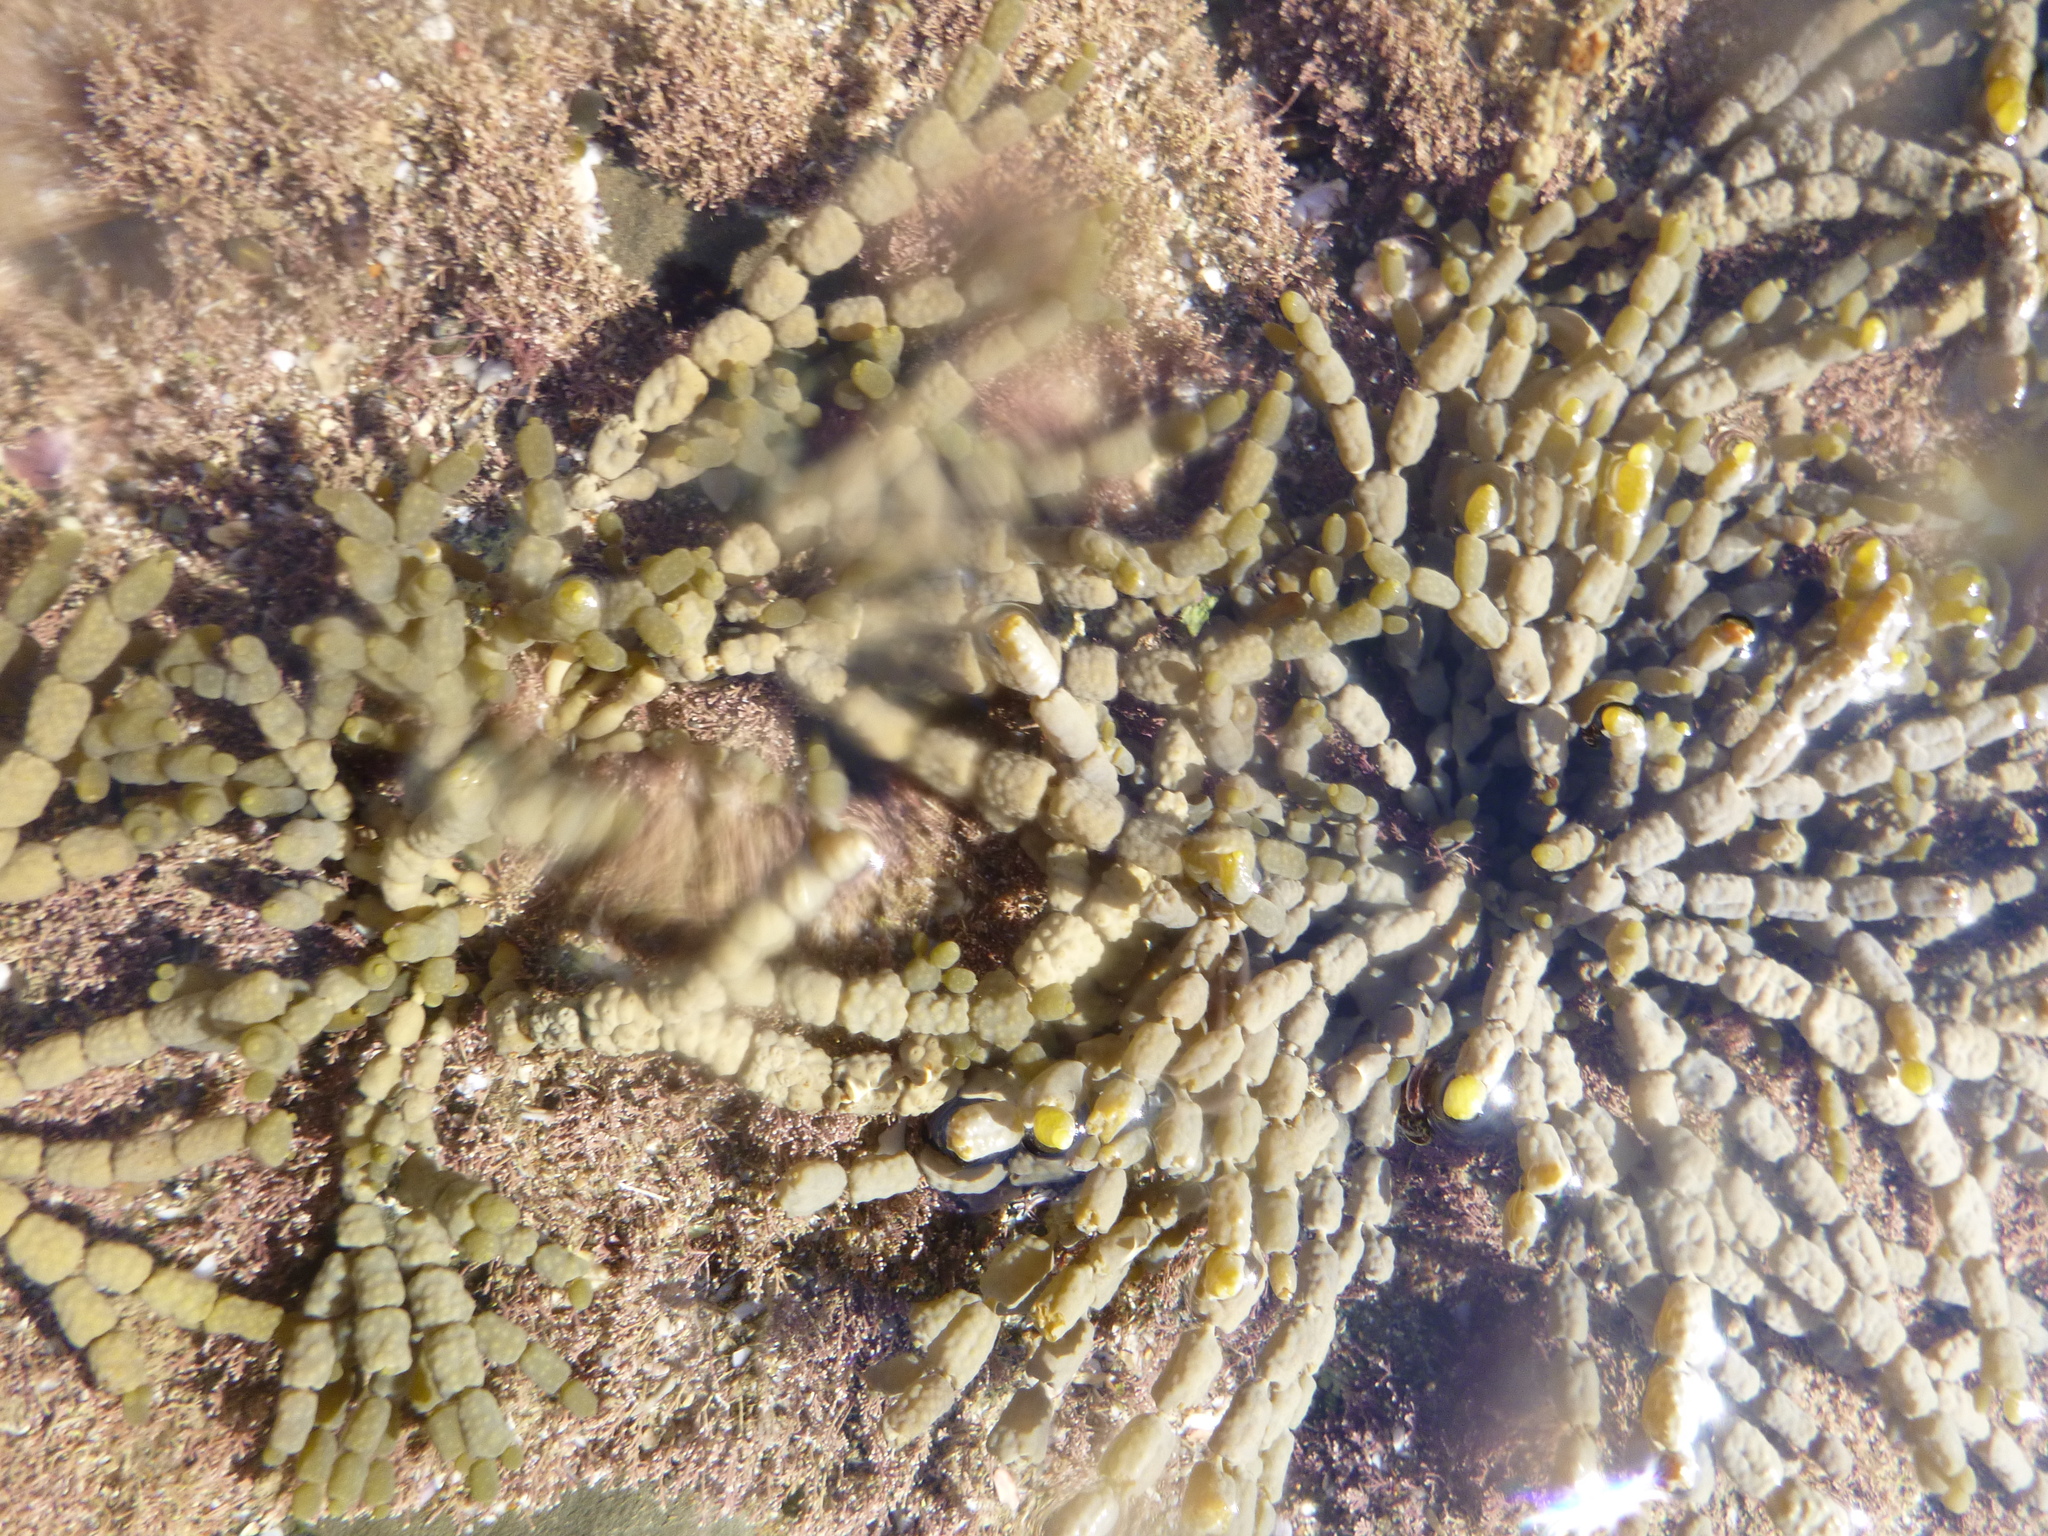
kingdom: Chromista
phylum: Ochrophyta
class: Phaeophyceae
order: Fucales
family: Hormosiraceae
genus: Hormosira
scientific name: Hormosira banksii
